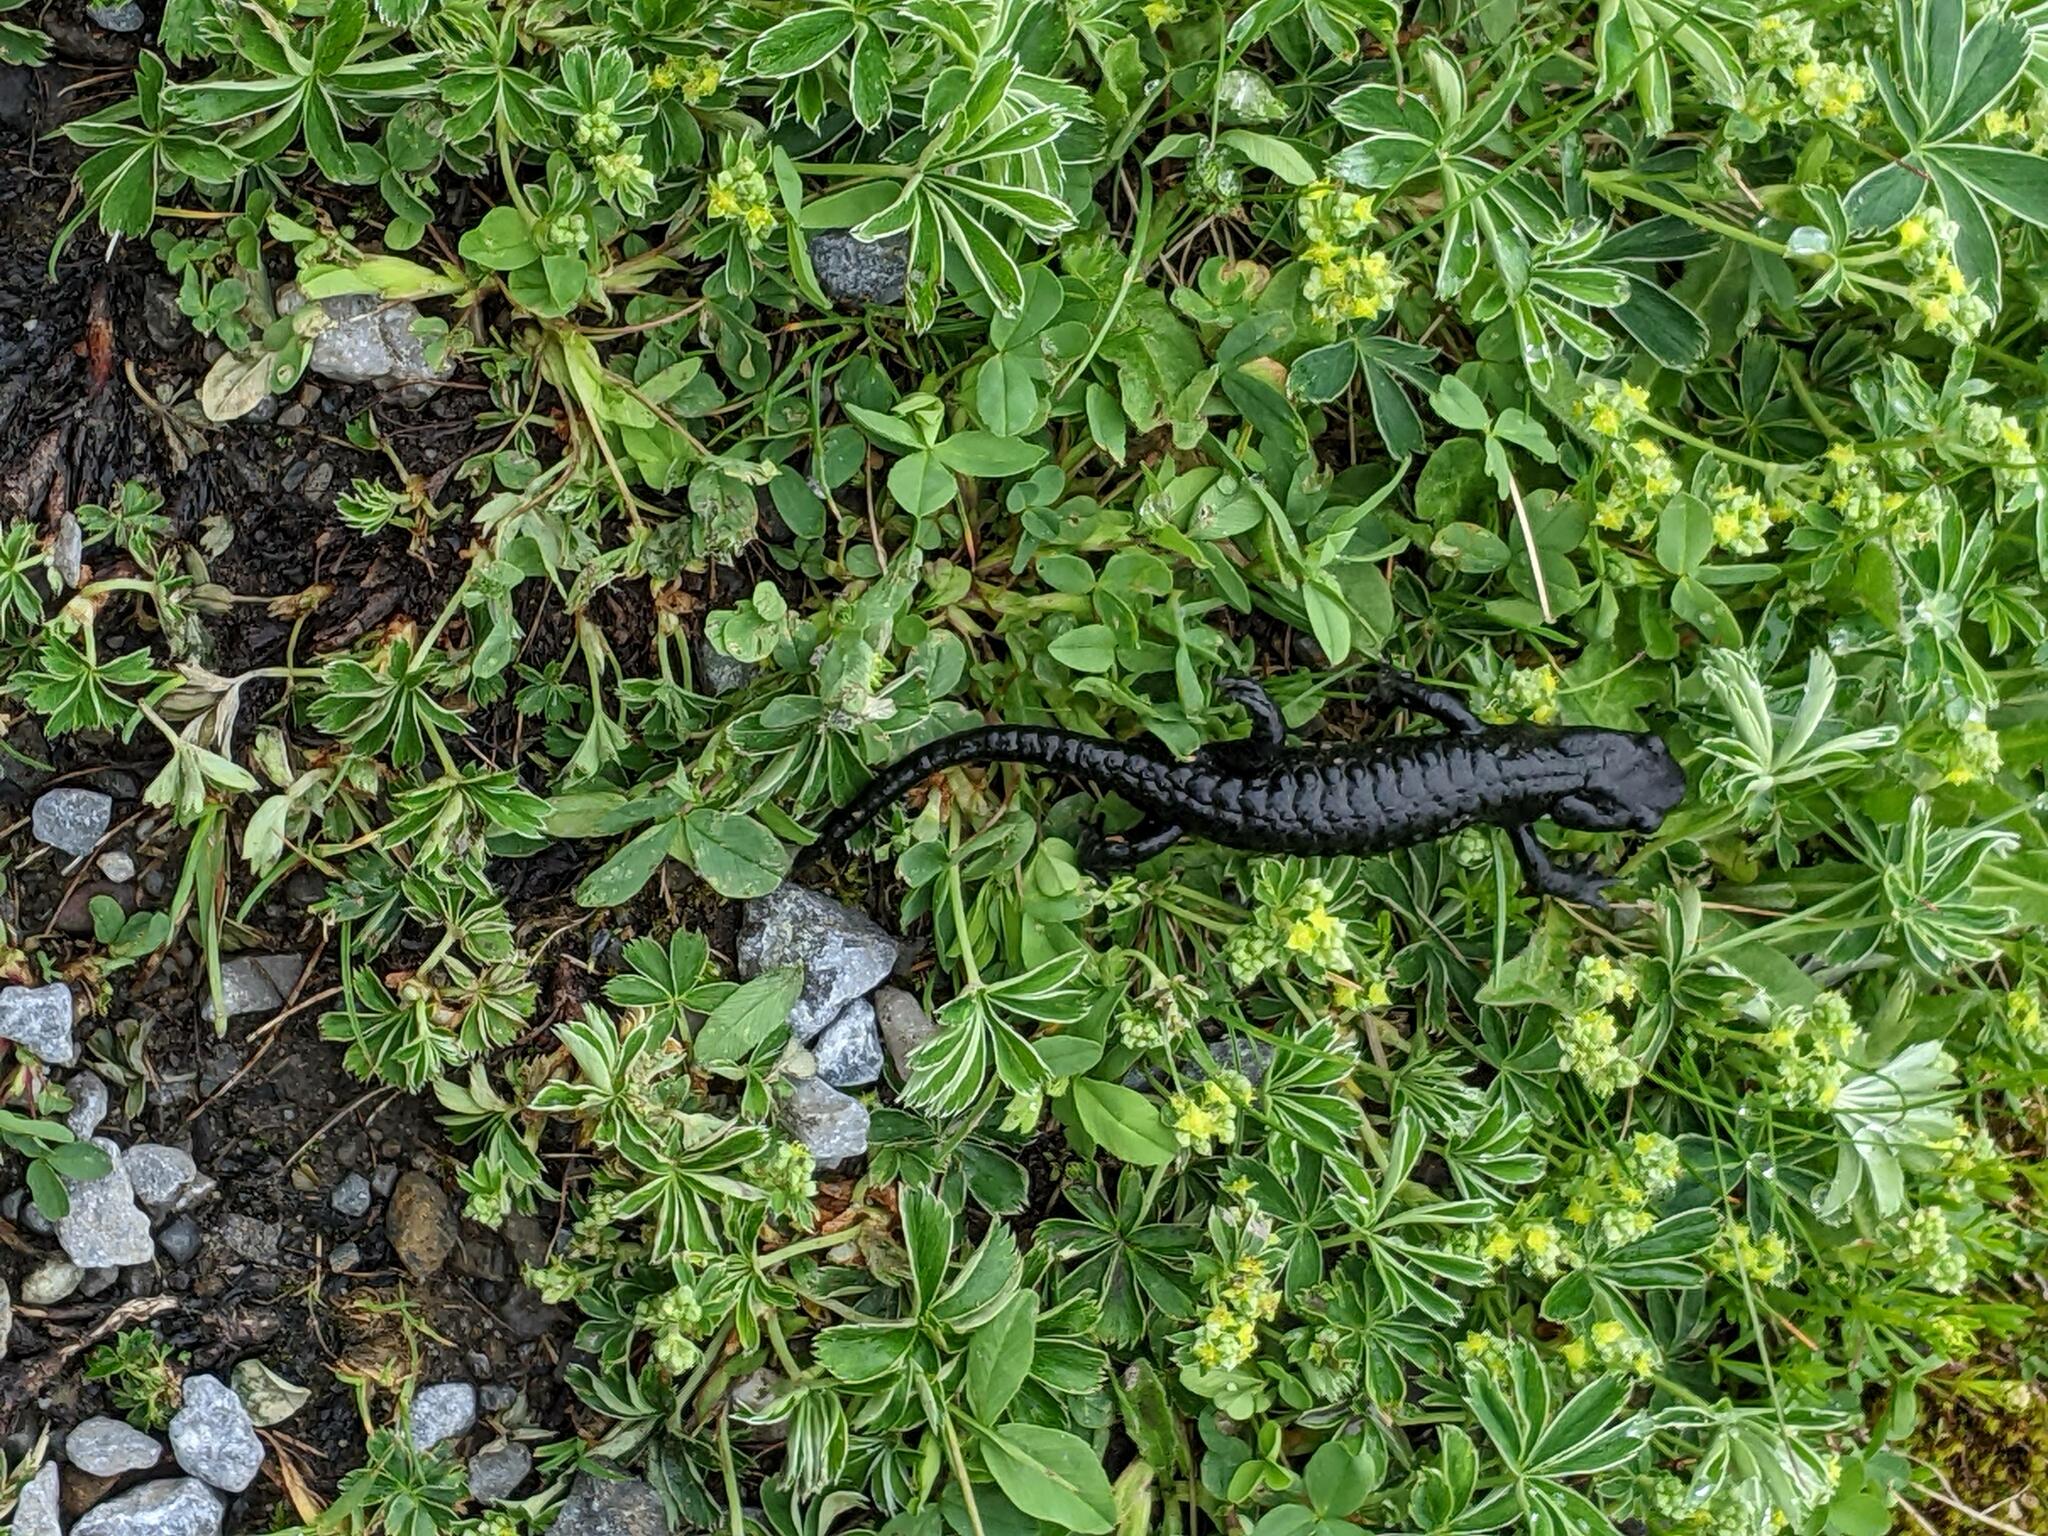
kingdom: Animalia
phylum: Chordata
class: Amphibia
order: Caudata
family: Salamandridae
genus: Salamandra
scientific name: Salamandra atra
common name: Alpine salamander
